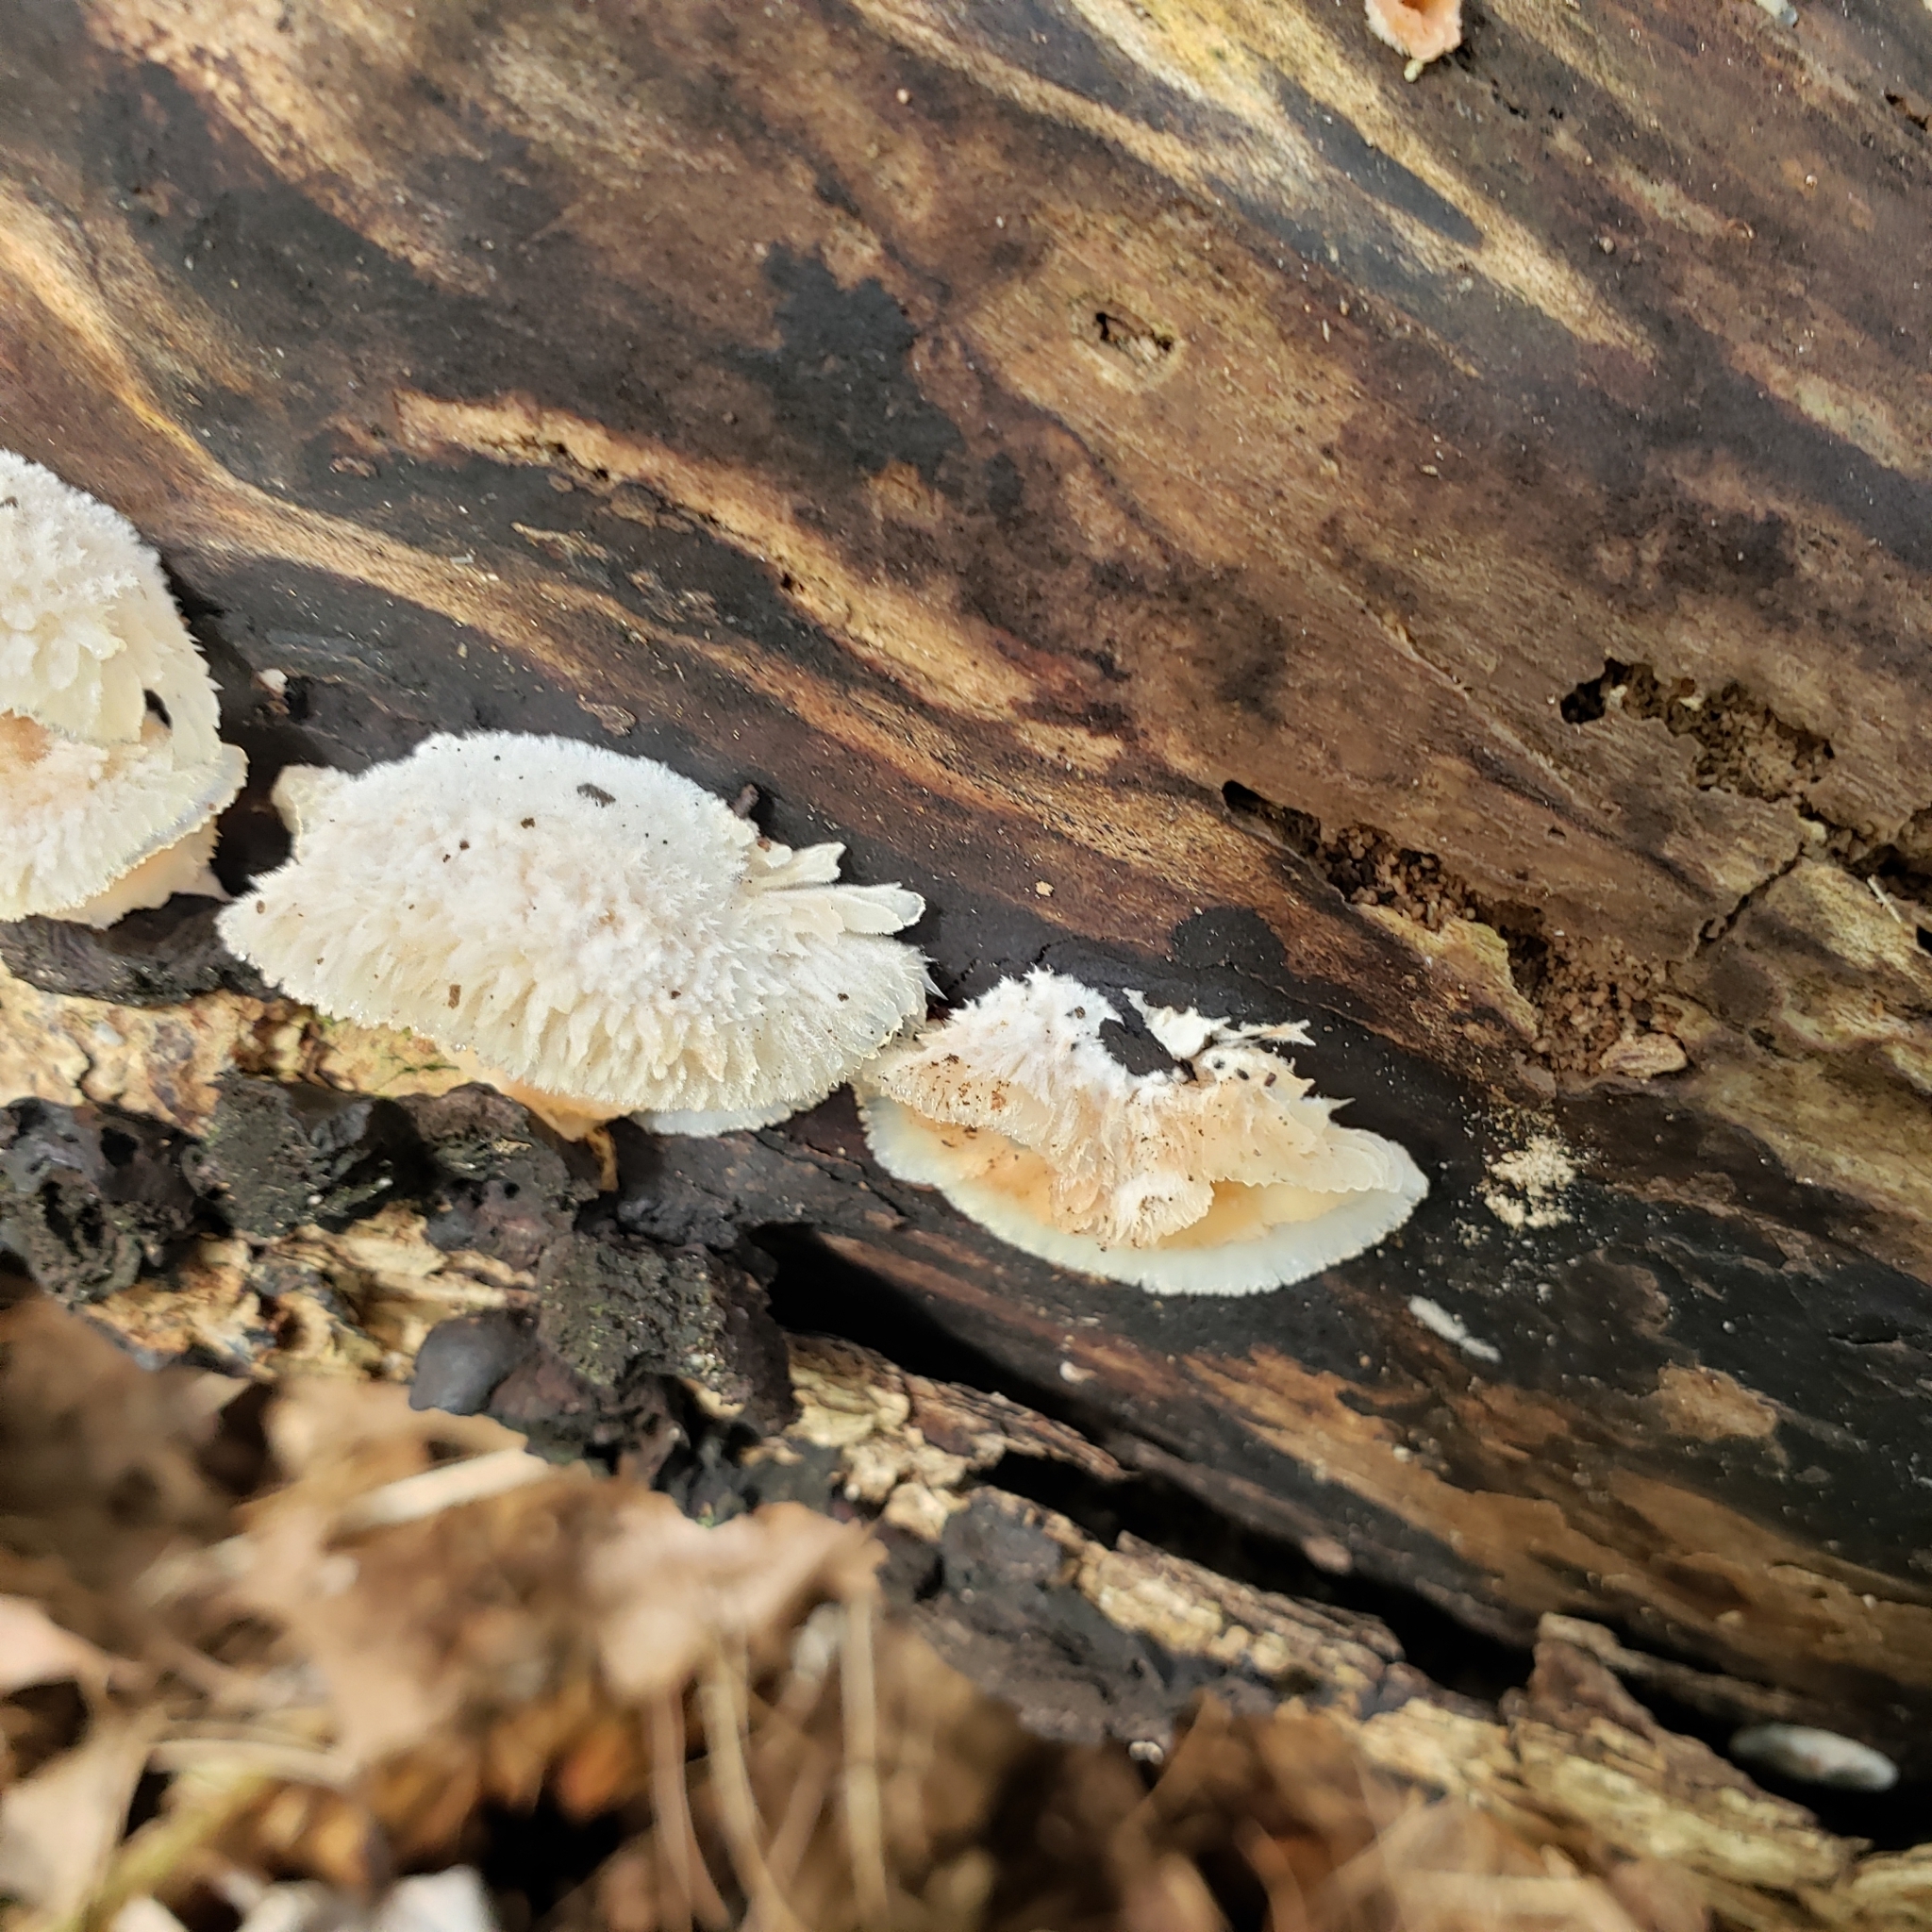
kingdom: Fungi
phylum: Basidiomycota
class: Agaricomycetes
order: Polyporales
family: Meruliaceae
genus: Phlebia
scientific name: Phlebia tremellosa
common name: Jelly rot
